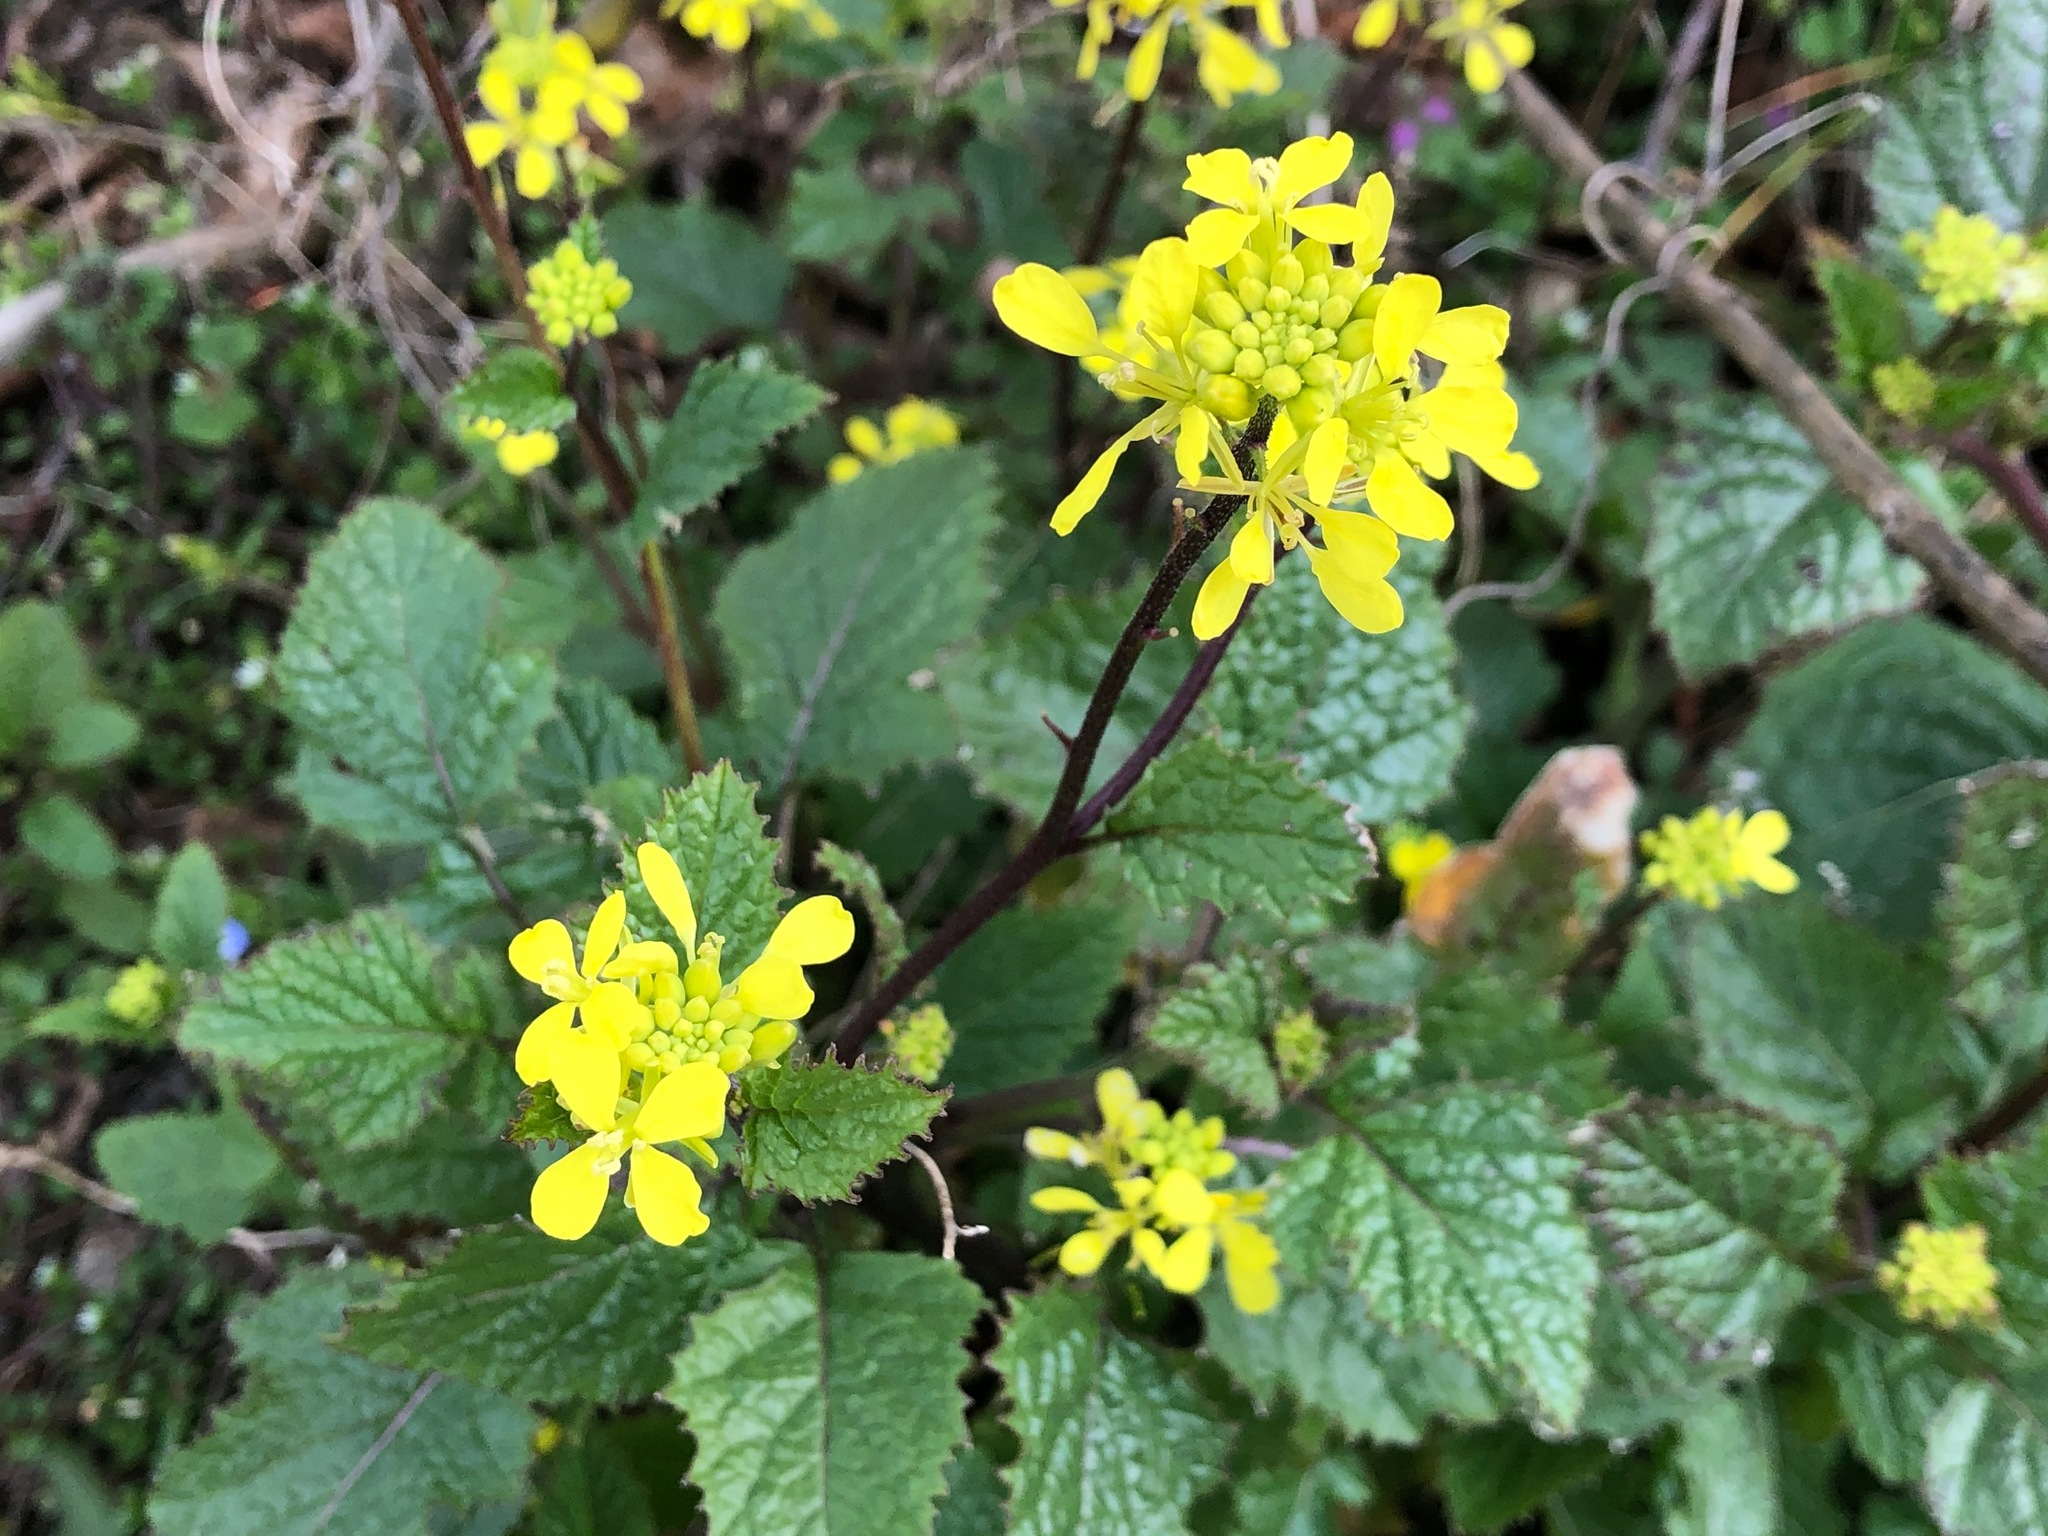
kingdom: Plantae
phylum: Tracheophyta
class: Magnoliopsida
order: Brassicales
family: Brassicaceae
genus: Sinapis
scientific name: Sinapis arvensis
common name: Charlock
